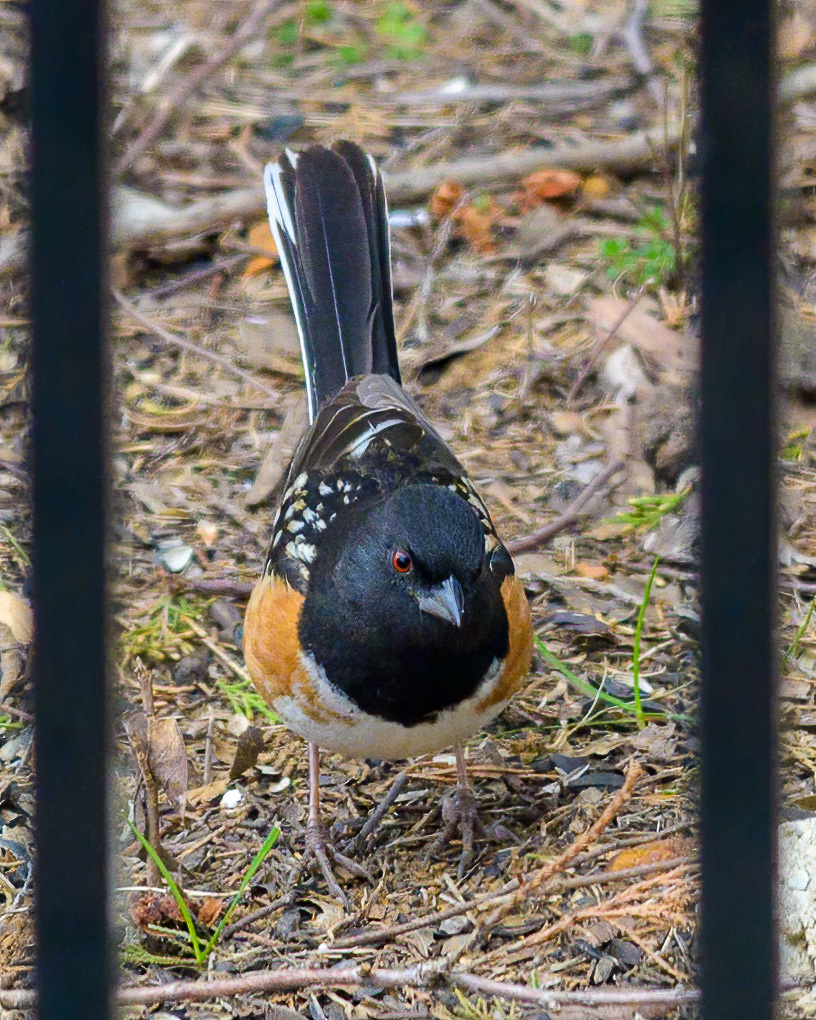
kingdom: Animalia
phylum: Chordata
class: Aves
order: Passeriformes
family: Passerellidae
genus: Pipilo
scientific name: Pipilo maculatus
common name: Spotted towhee
